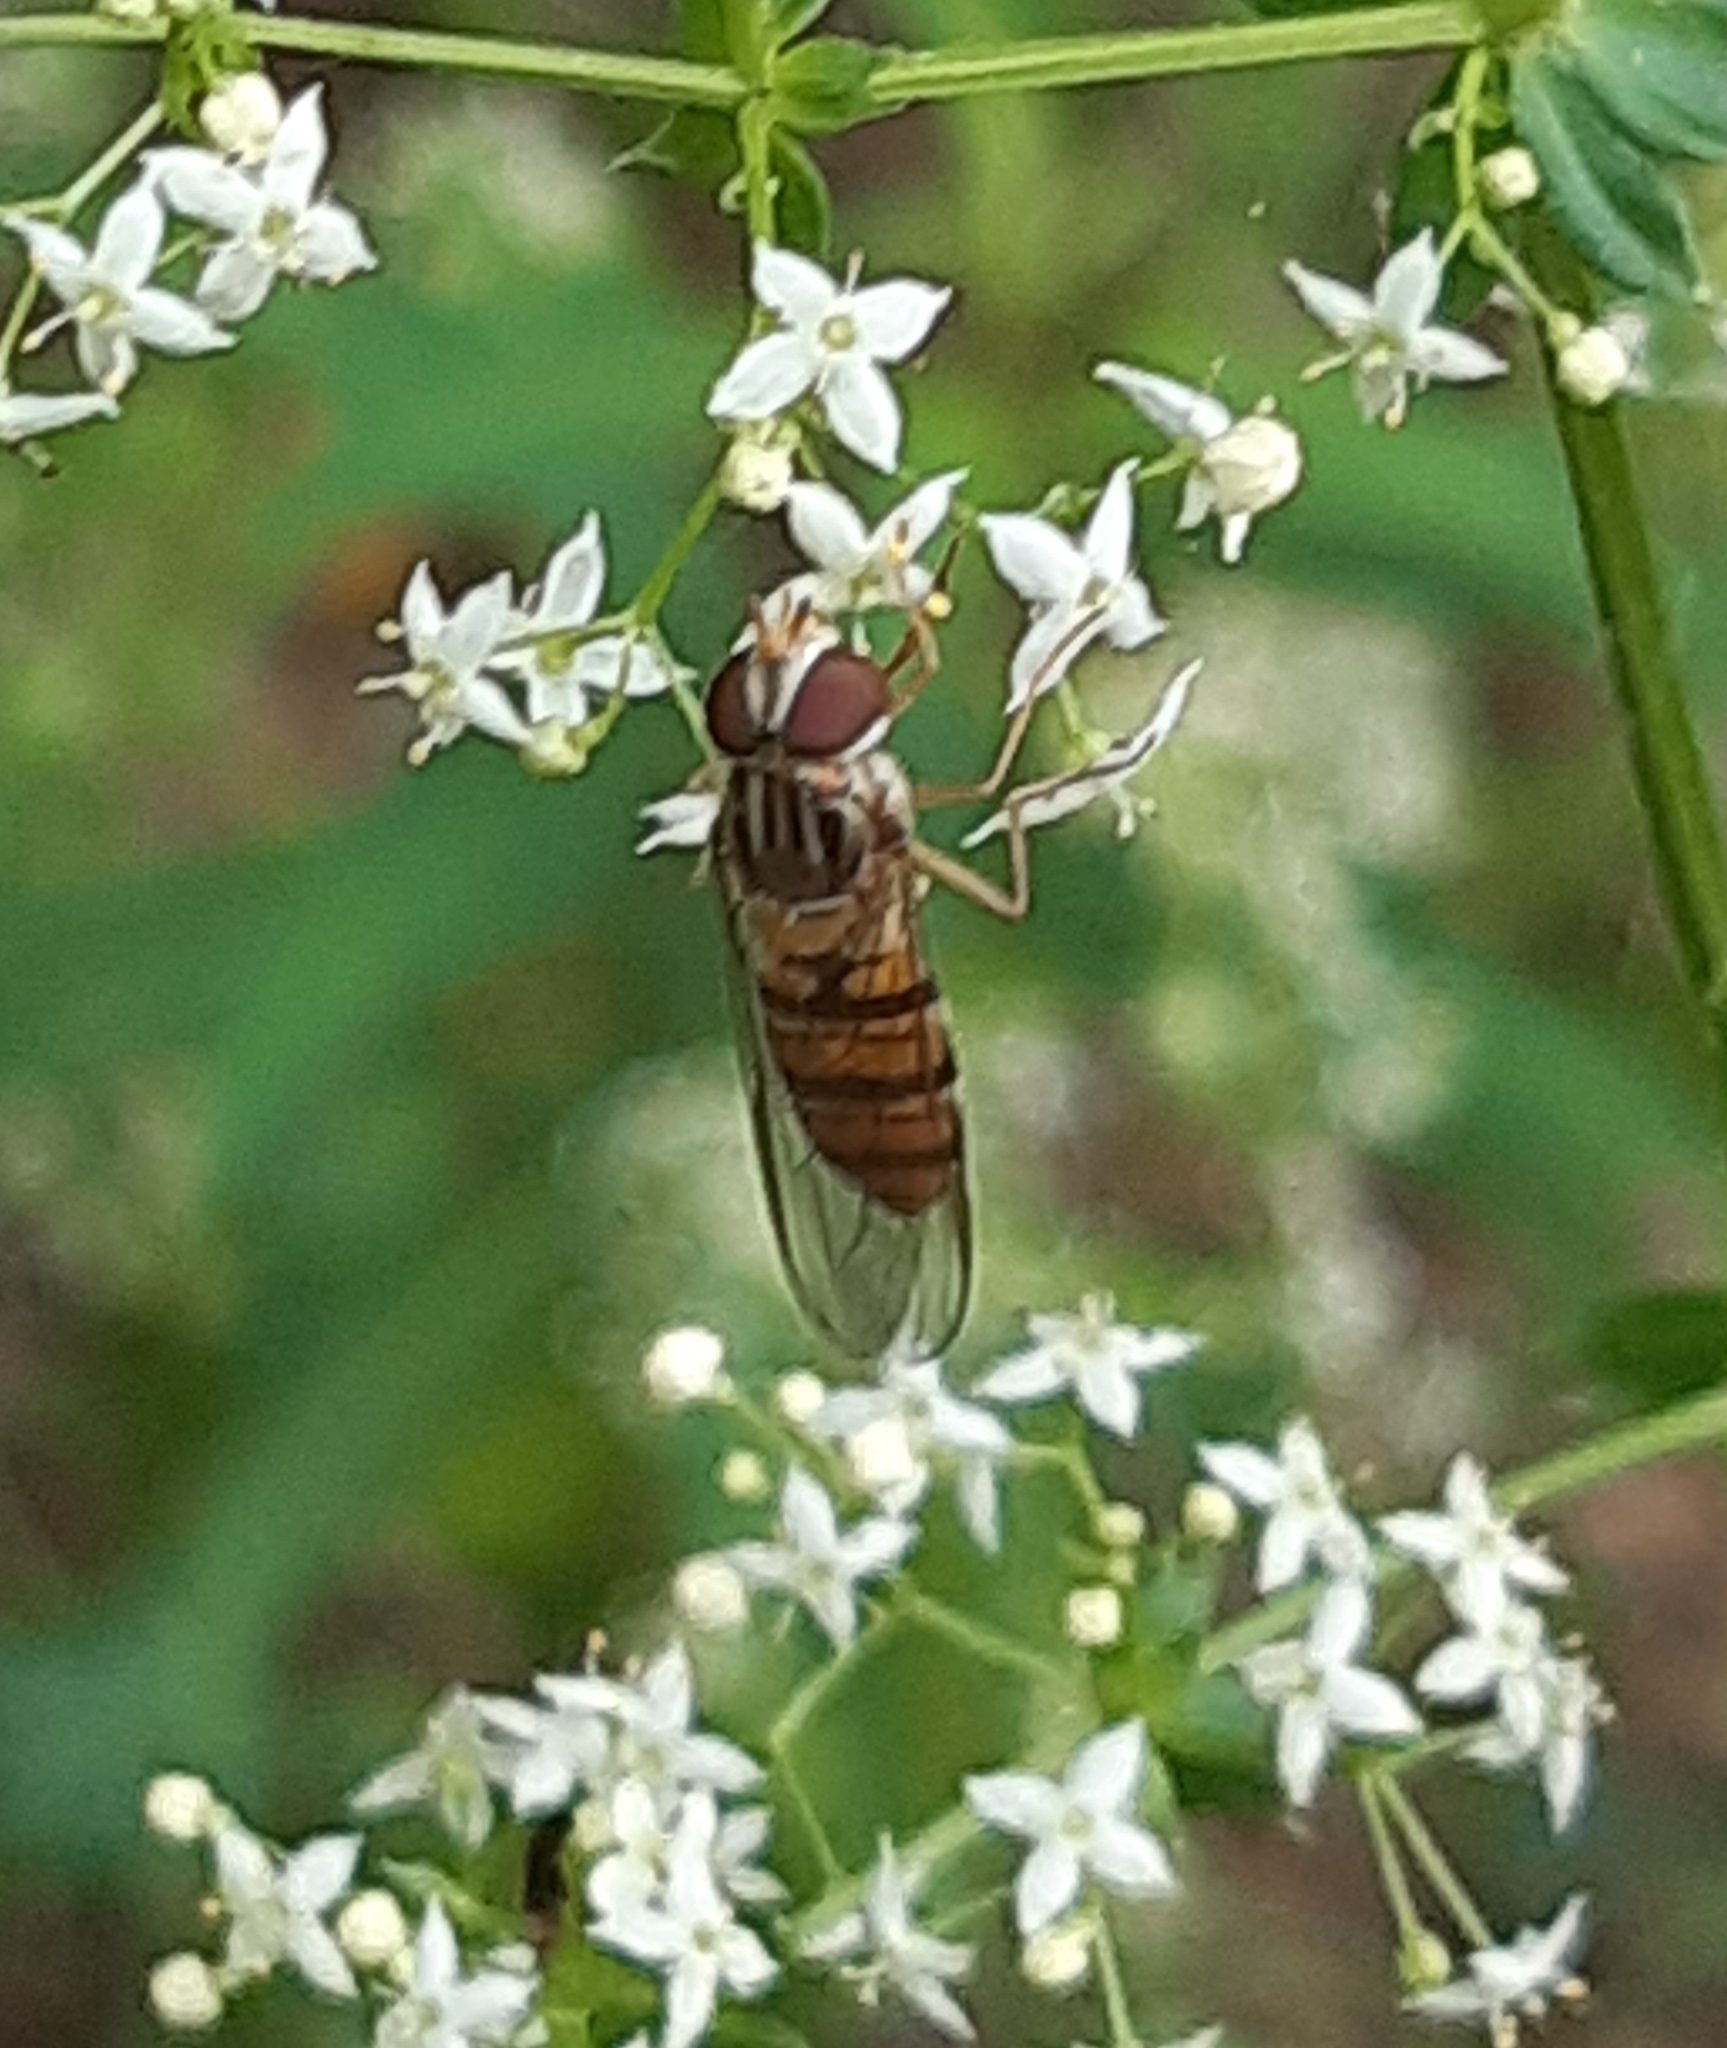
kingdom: Animalia
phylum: Arthropoda
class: Insecta
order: Diptera
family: Syrphidae
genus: Episyrphus
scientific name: Episyrphus balteatus
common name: Marmalade hoverfly
